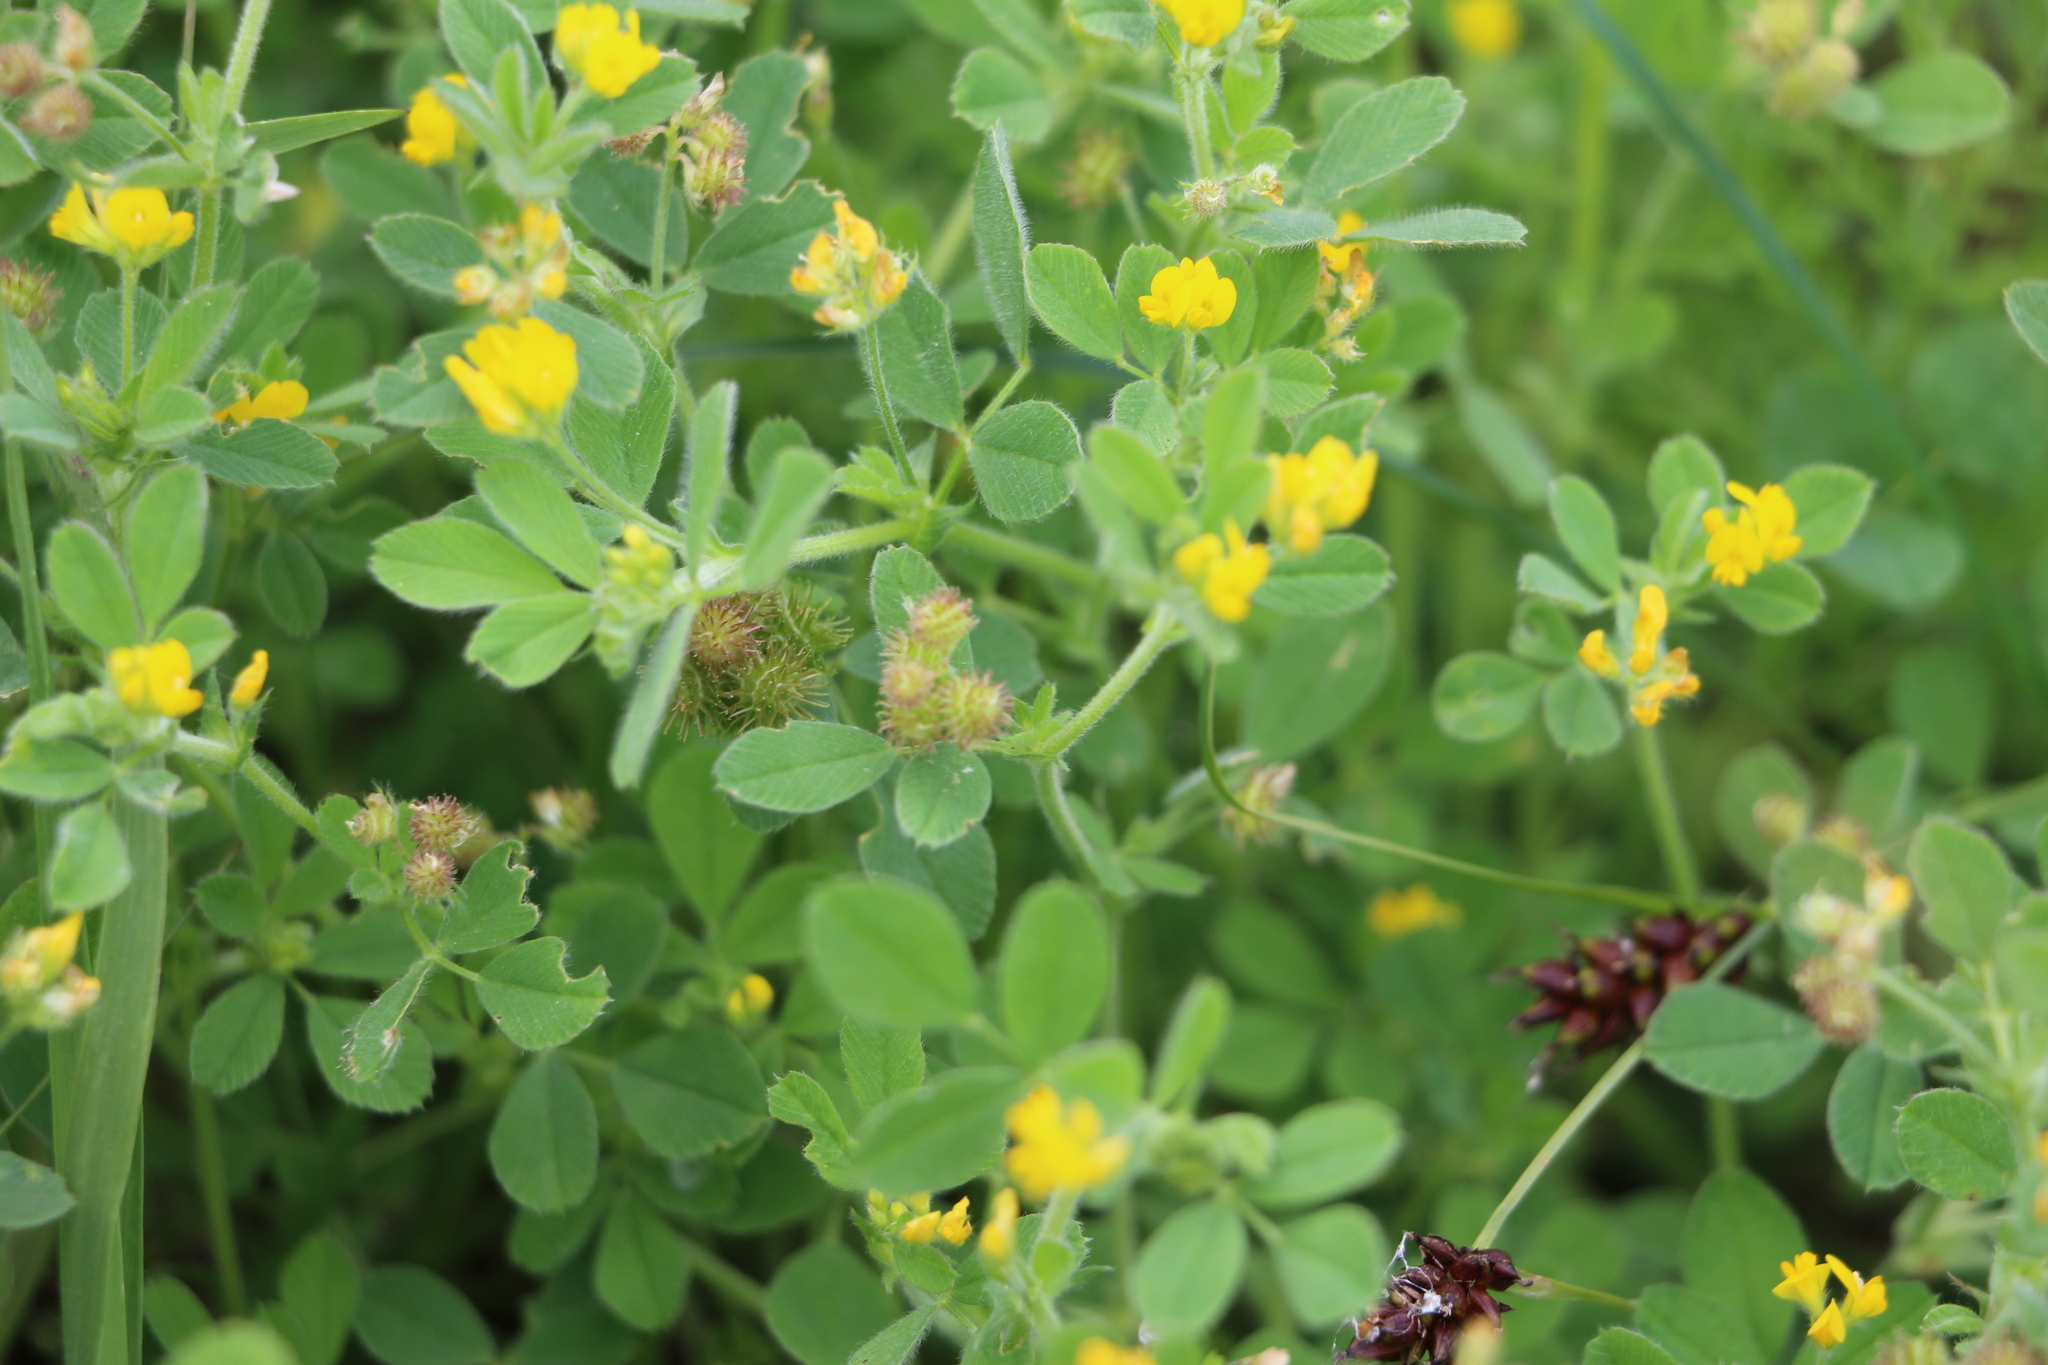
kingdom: Plantae
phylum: Tracheophyta
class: Magnoliopsida
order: Fabales
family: Fabaceae
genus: Medicago
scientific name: Medicago rigidula
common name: Tifton medic
